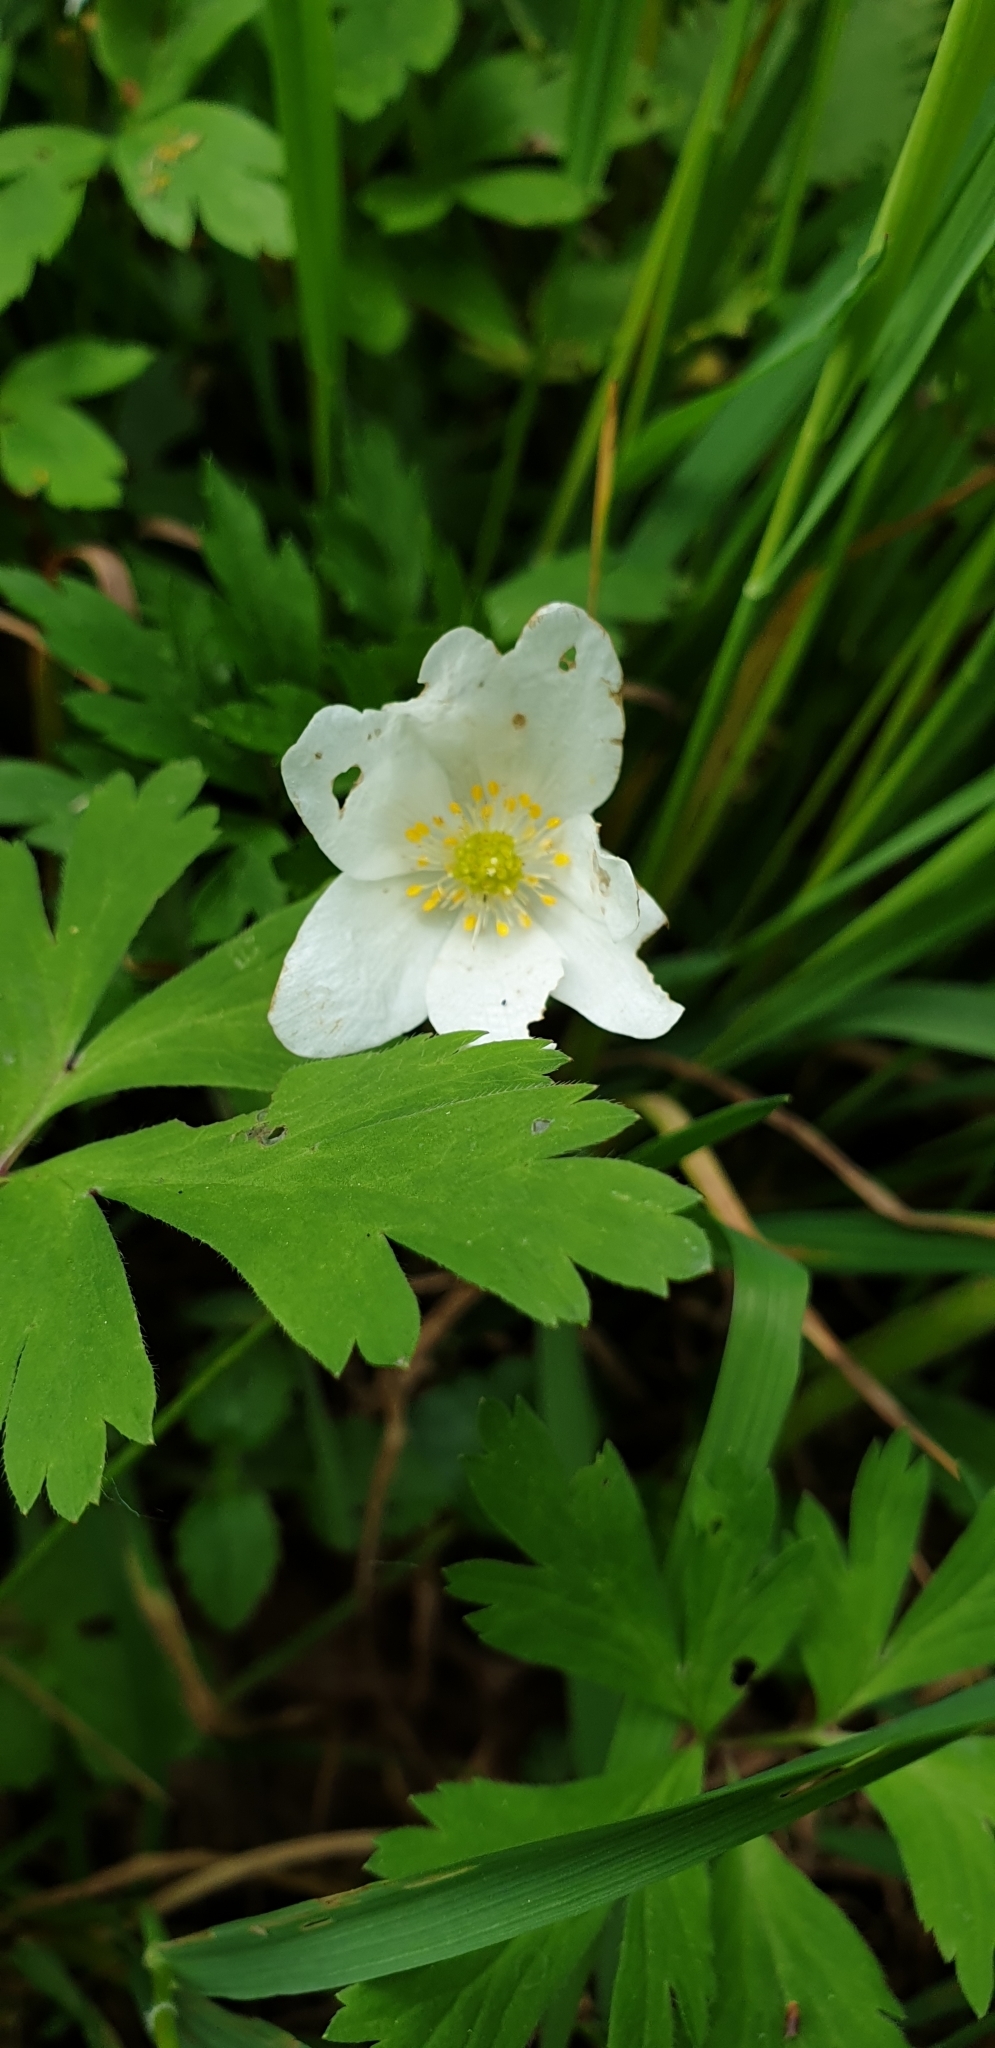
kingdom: Plantae
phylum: Tracheophyta
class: Magnoliopsida
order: Ranunculales
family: Ranunculaceae
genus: Anemone
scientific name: Anemone nemorosa
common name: Wood anemone
